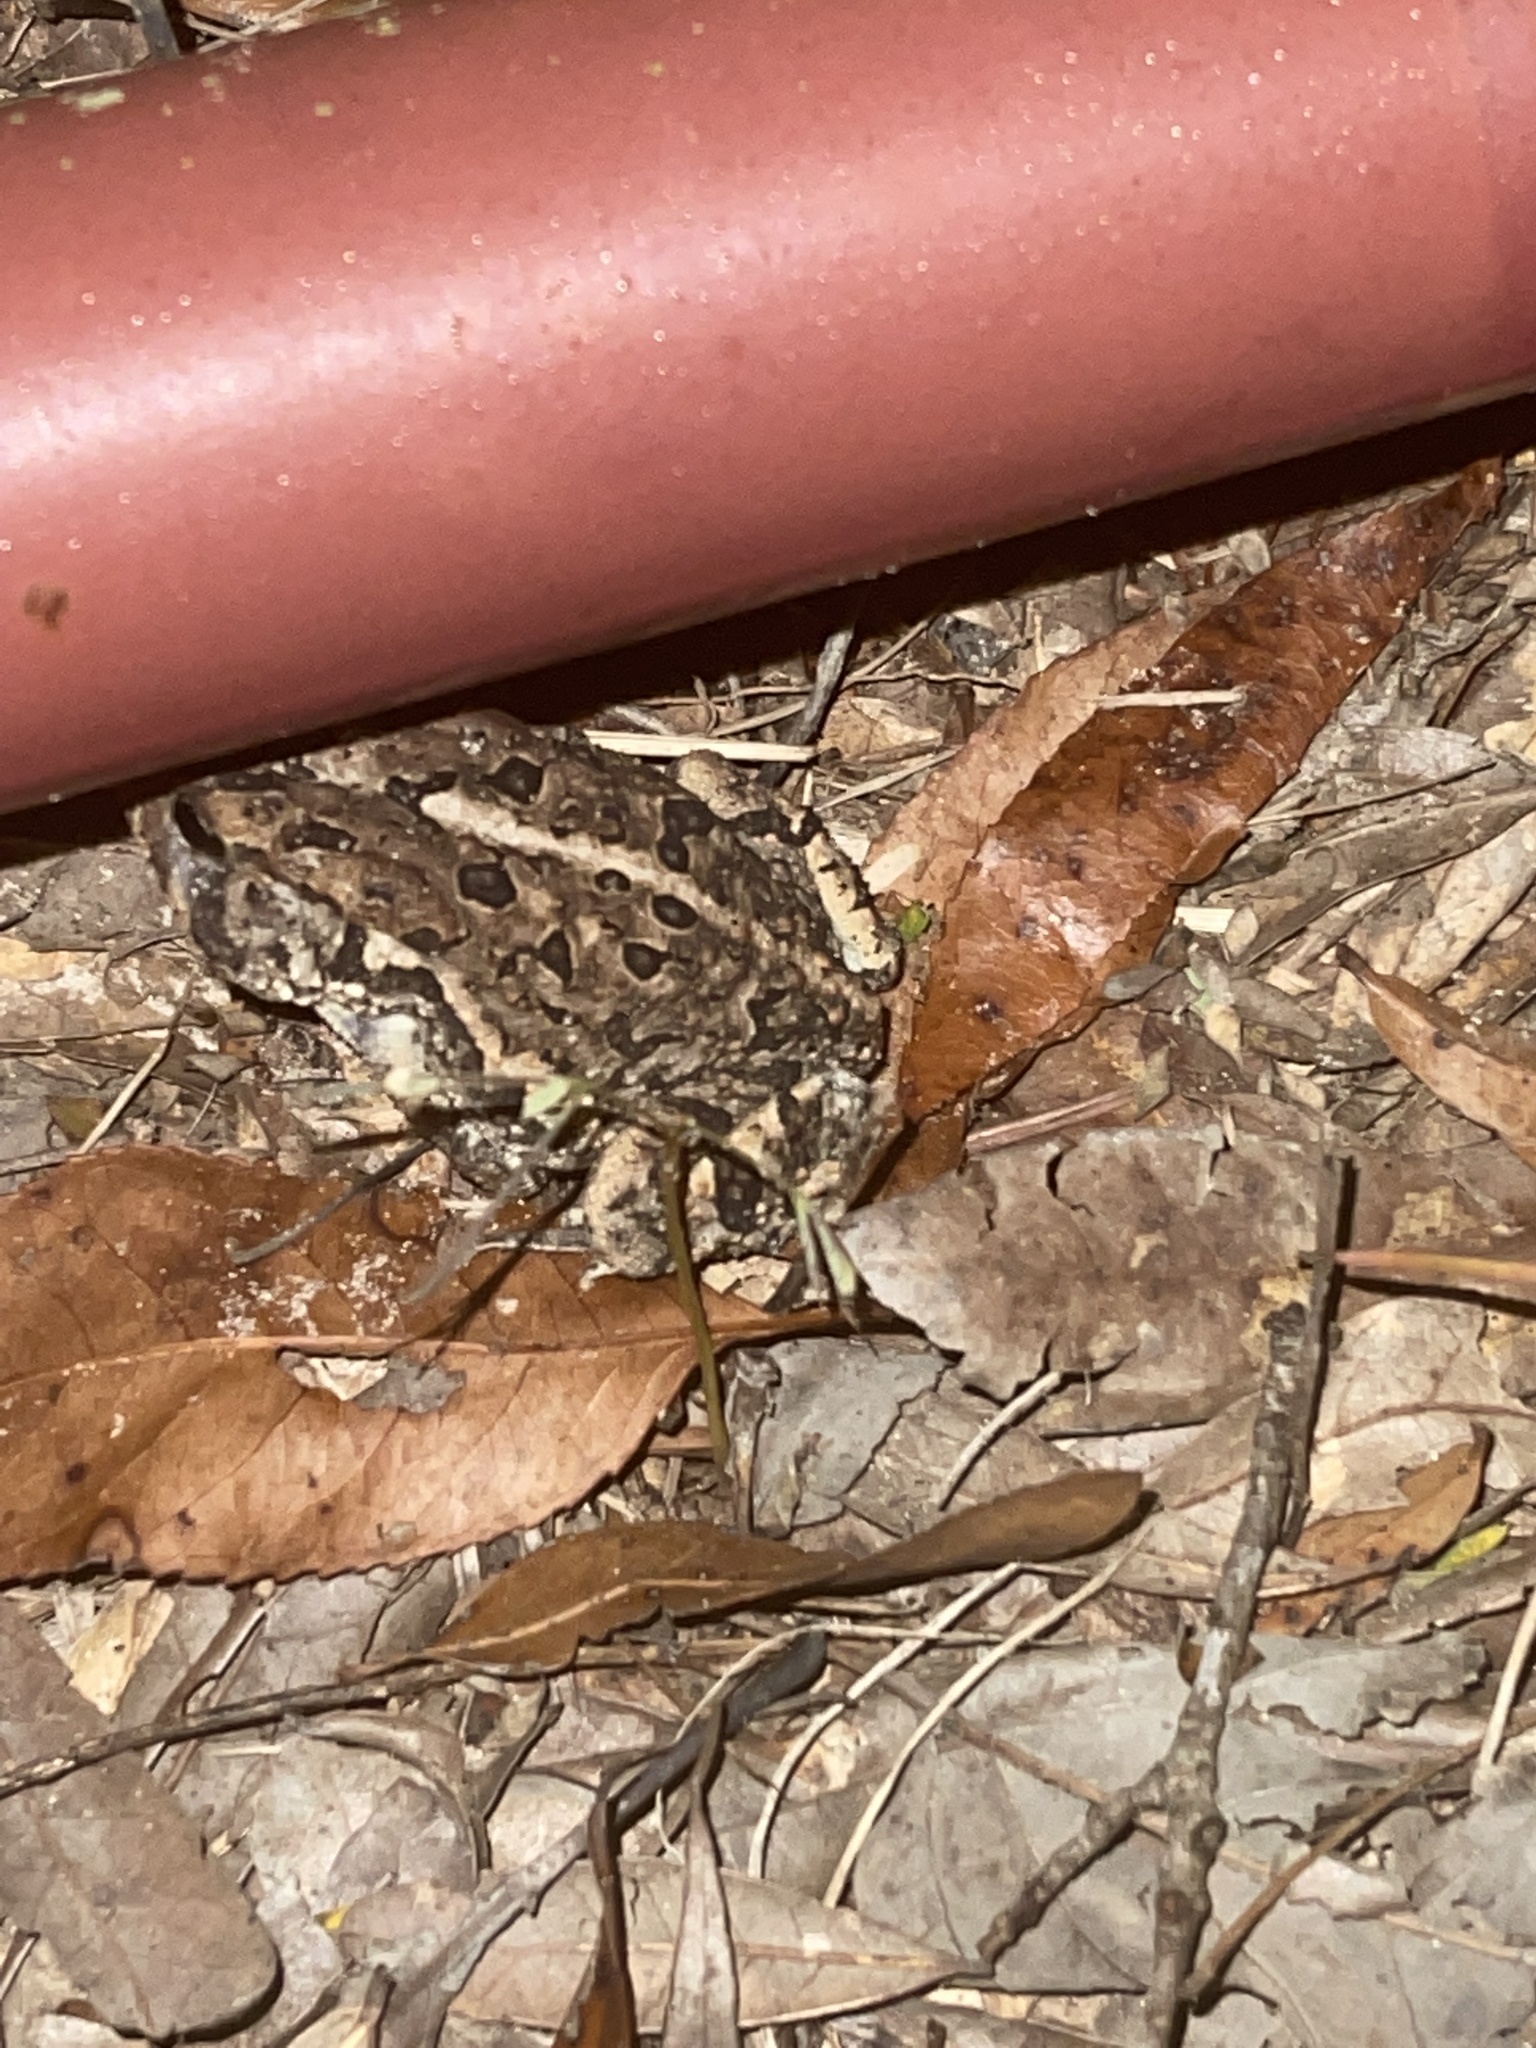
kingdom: Animalia
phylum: Chordata
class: Amphibia
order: Anura
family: Bufonidae
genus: Anaxyrus
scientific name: Anaxyrus terrestris
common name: Southern toad
